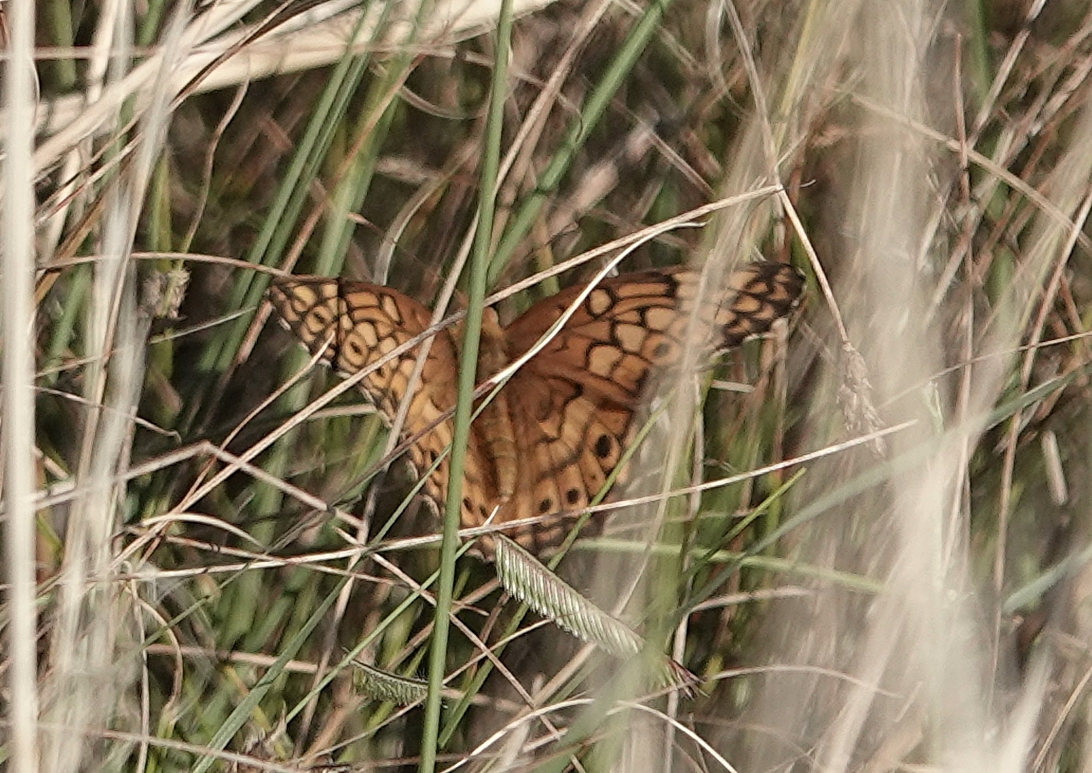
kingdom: Animalia
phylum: Arthropoda
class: Insecta
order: Lepidoptera
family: Nymphalidae
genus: Euptoieta
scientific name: Euptoieta claudia
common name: Variegated fritillary
